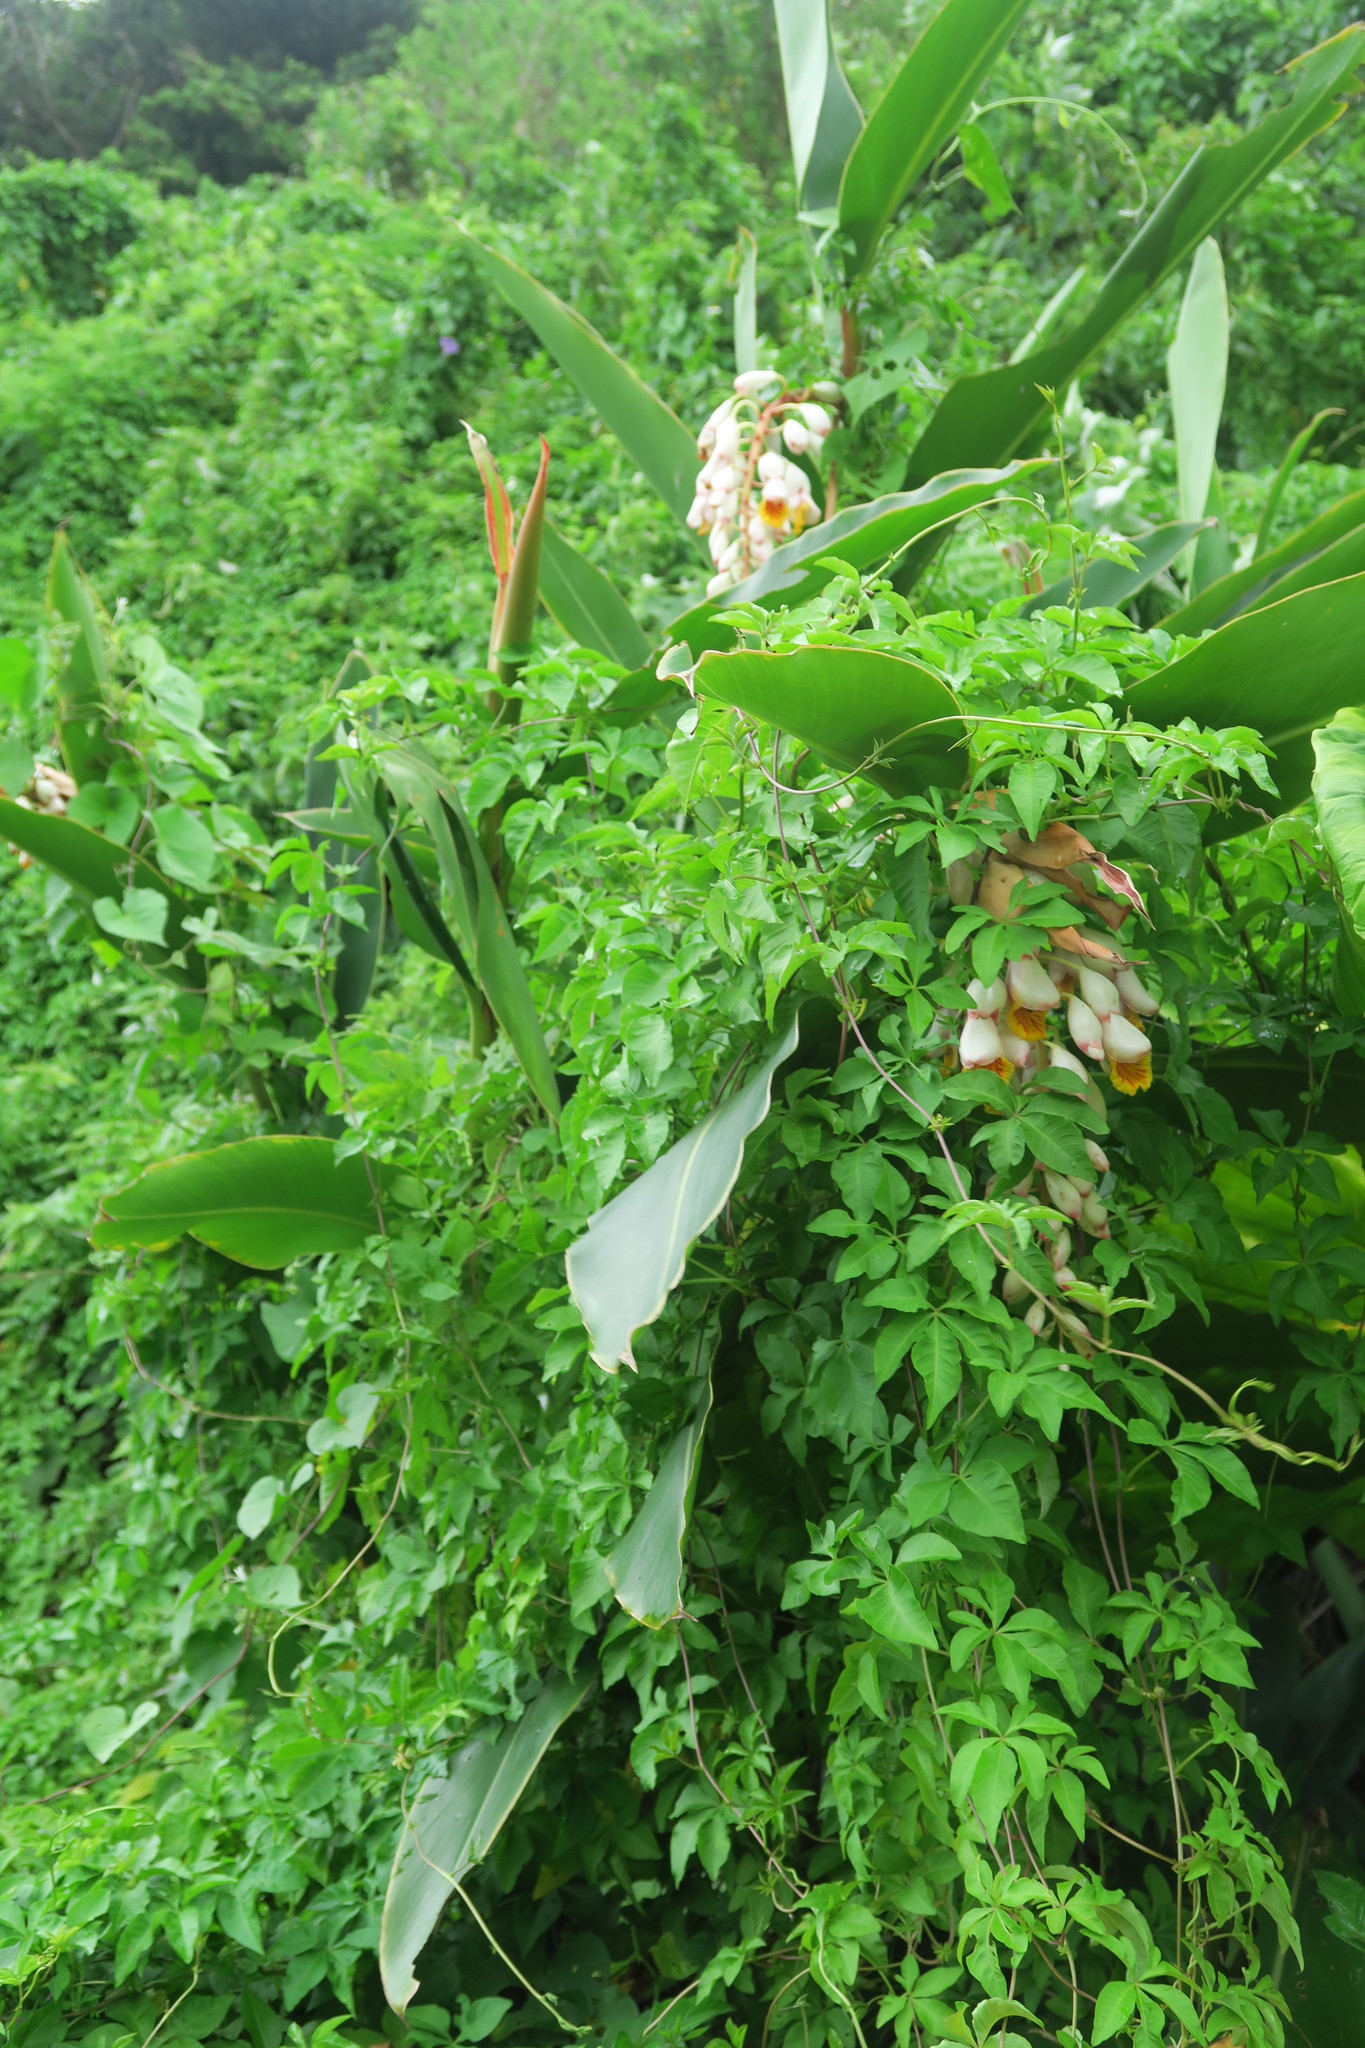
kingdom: Plantae
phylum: Tracheophyta
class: Liliopsida
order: Zingiberales
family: Zingiberaceae
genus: Alpinia
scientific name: Alpinia zerumbet
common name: Shellplant
